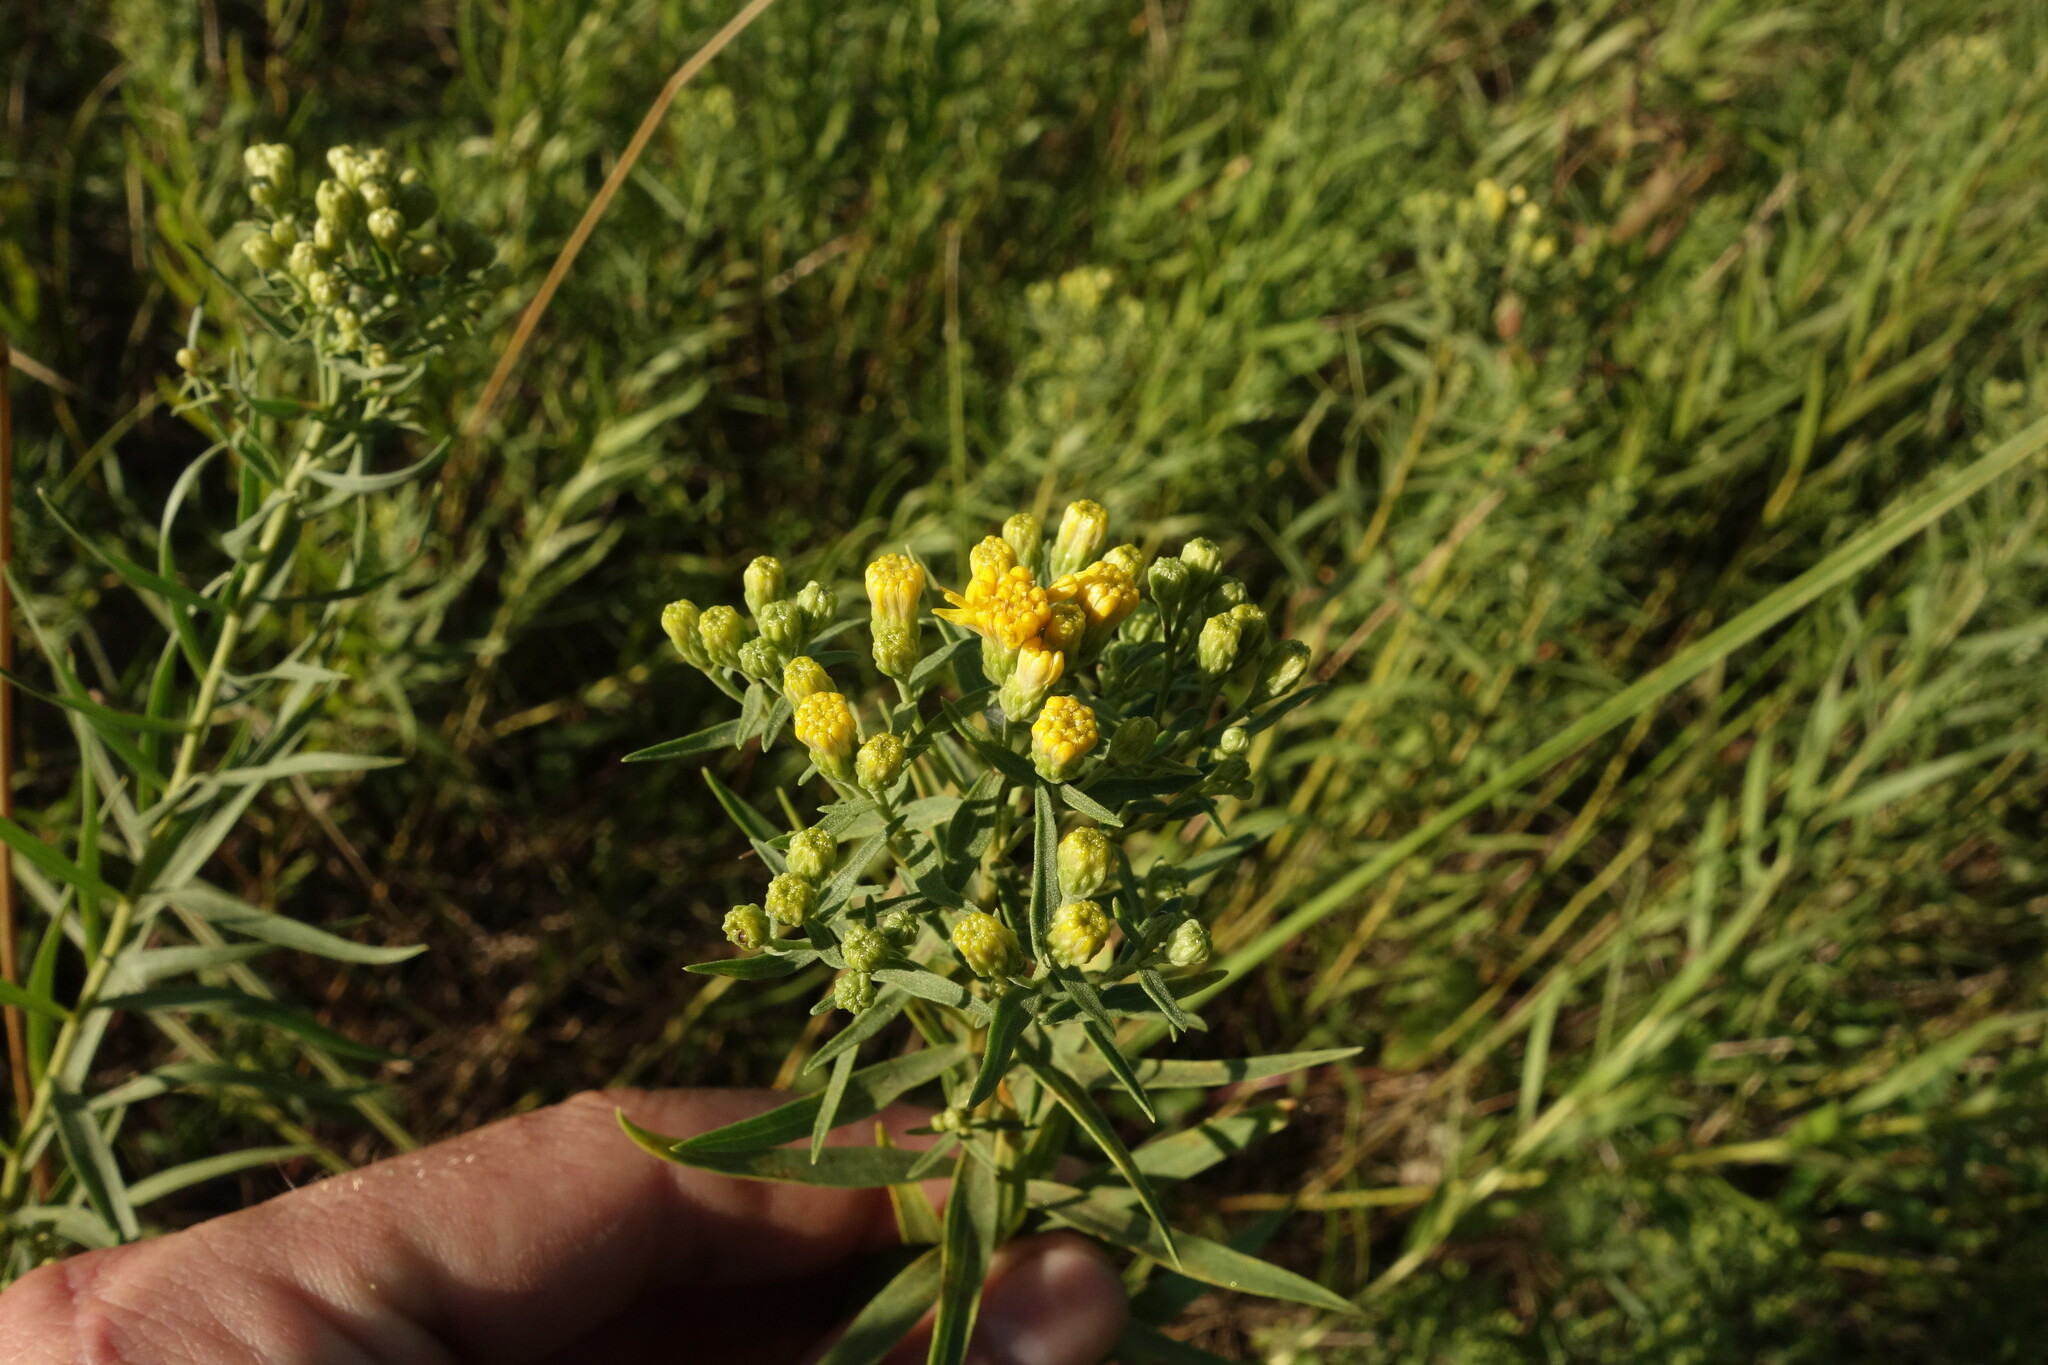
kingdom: Plantae
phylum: Tracheophyta
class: Magnoliopsida
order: Asterales
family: Asteraceae
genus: Galatella
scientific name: Galatella biflora
